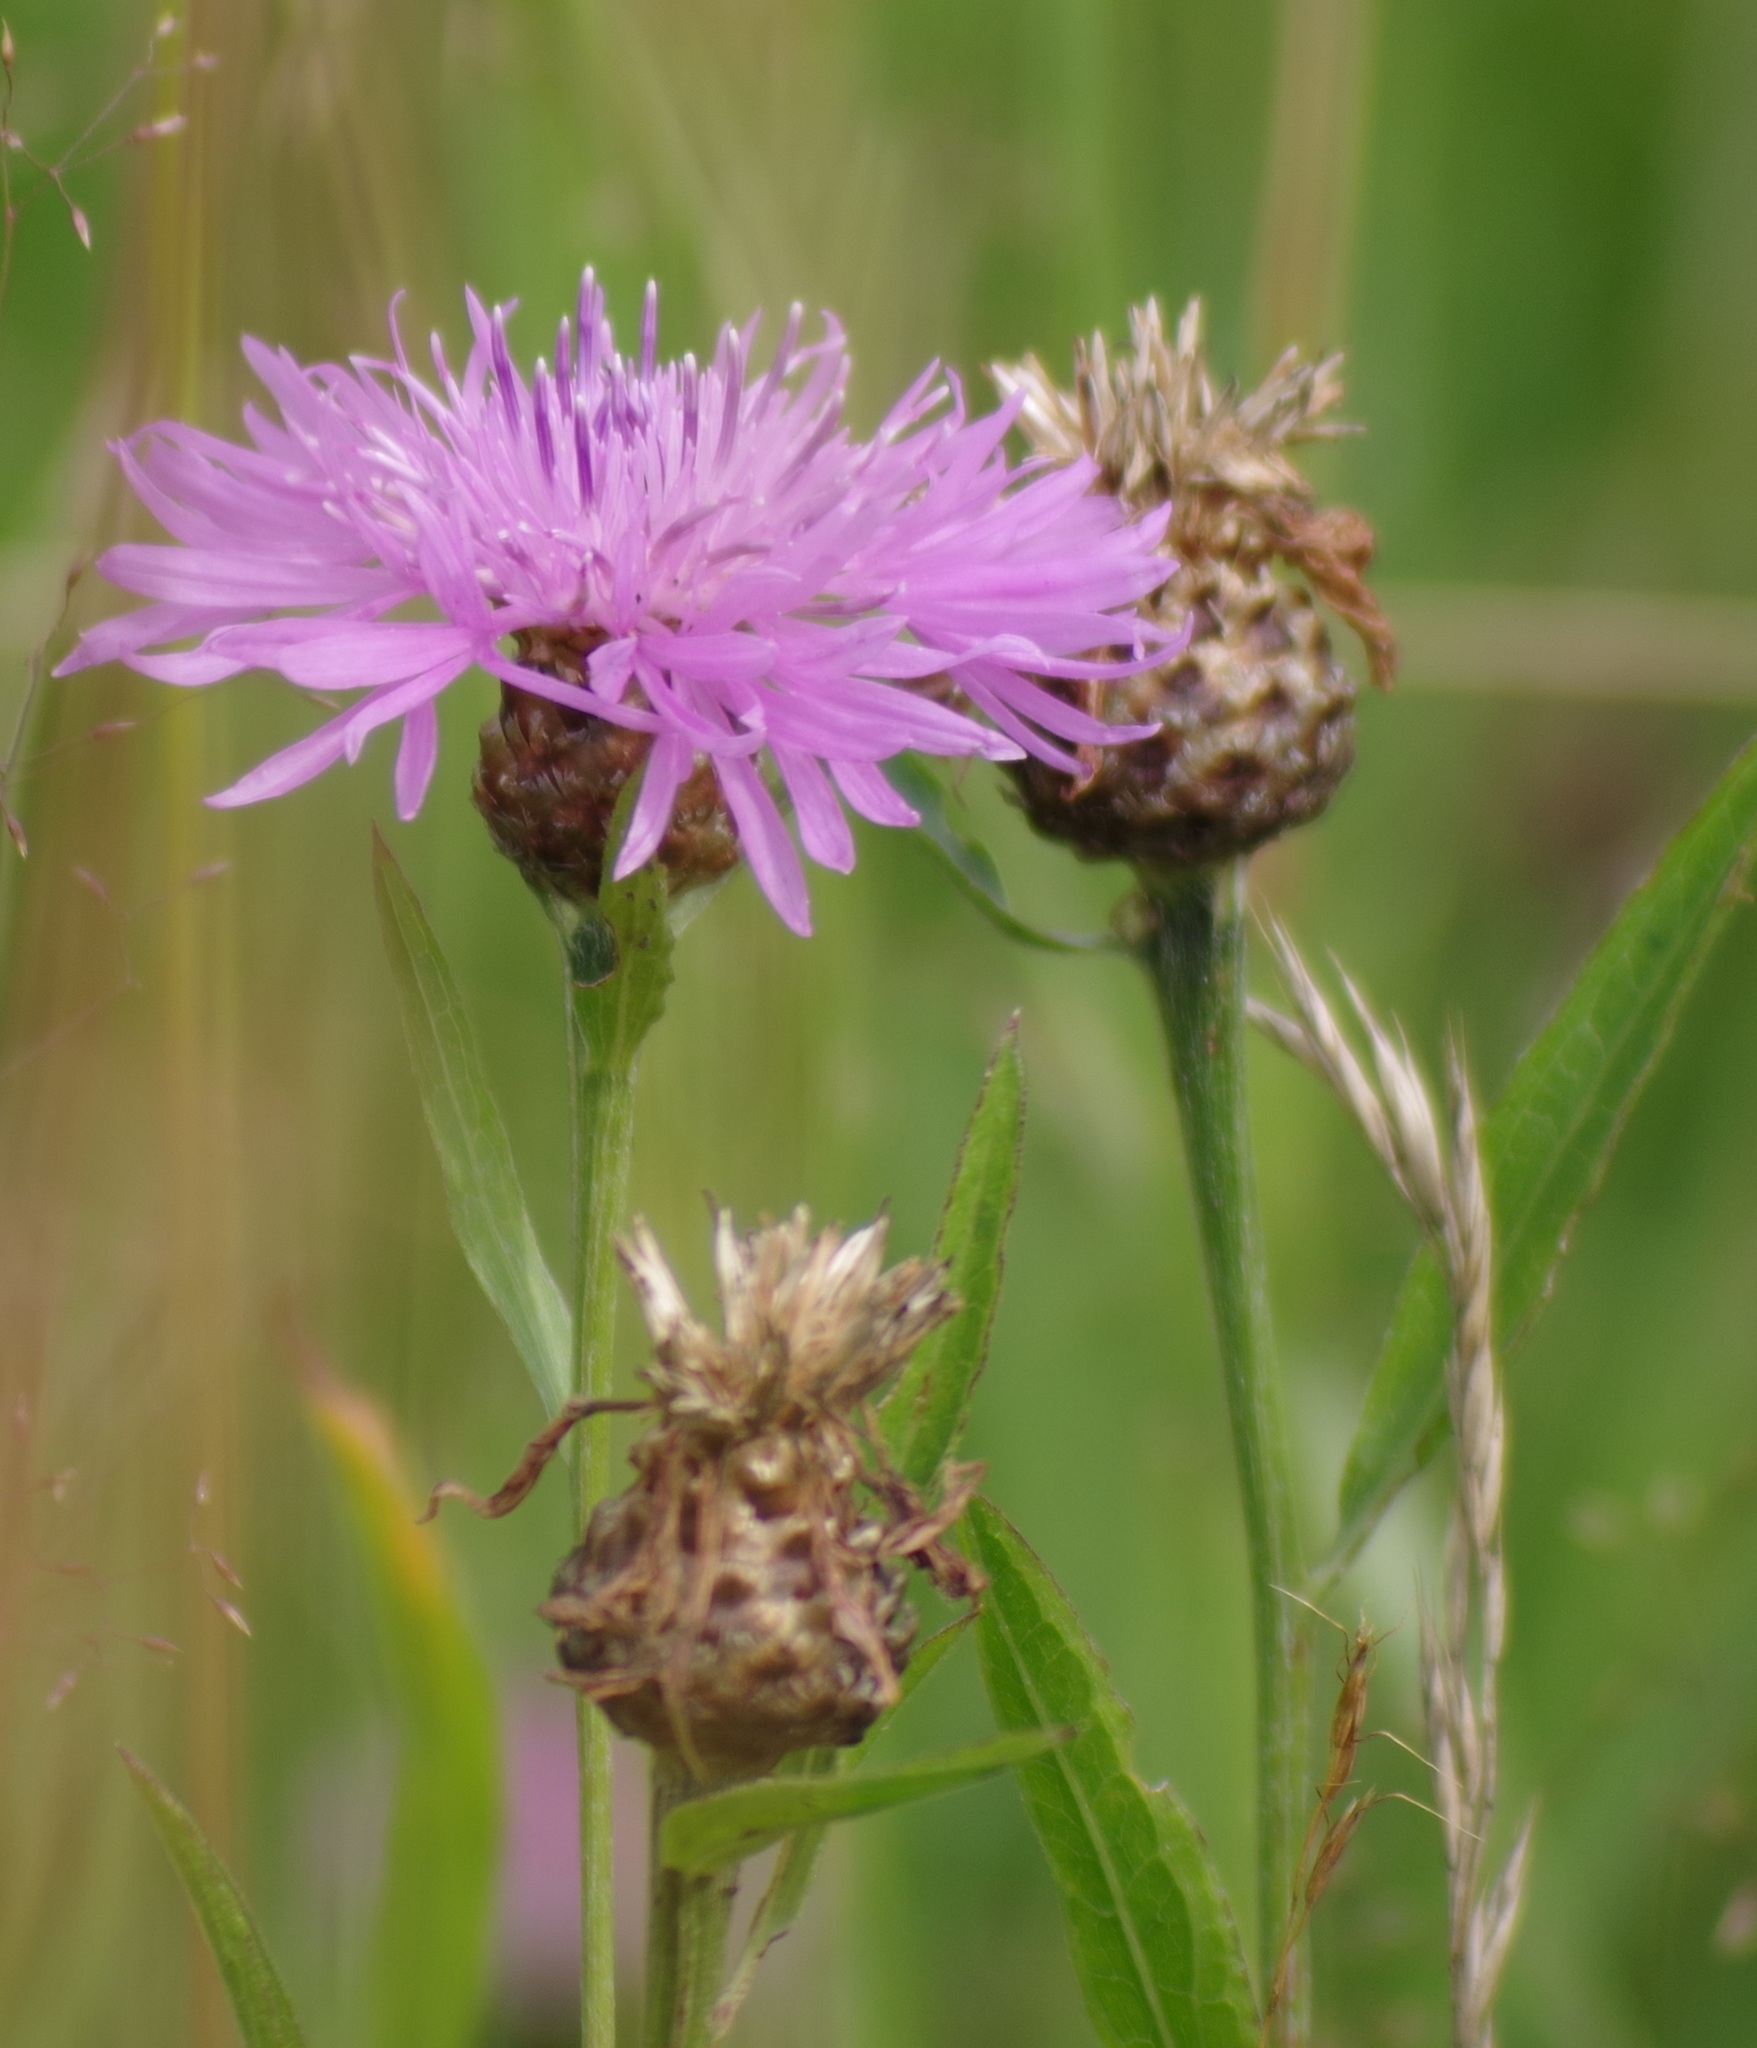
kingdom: Plantae
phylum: Tracheophyta
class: Magnoliopsida
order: Asterales
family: Asteraceae
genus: Centaurea
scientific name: Centaurea jacea
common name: Brown knapweed
